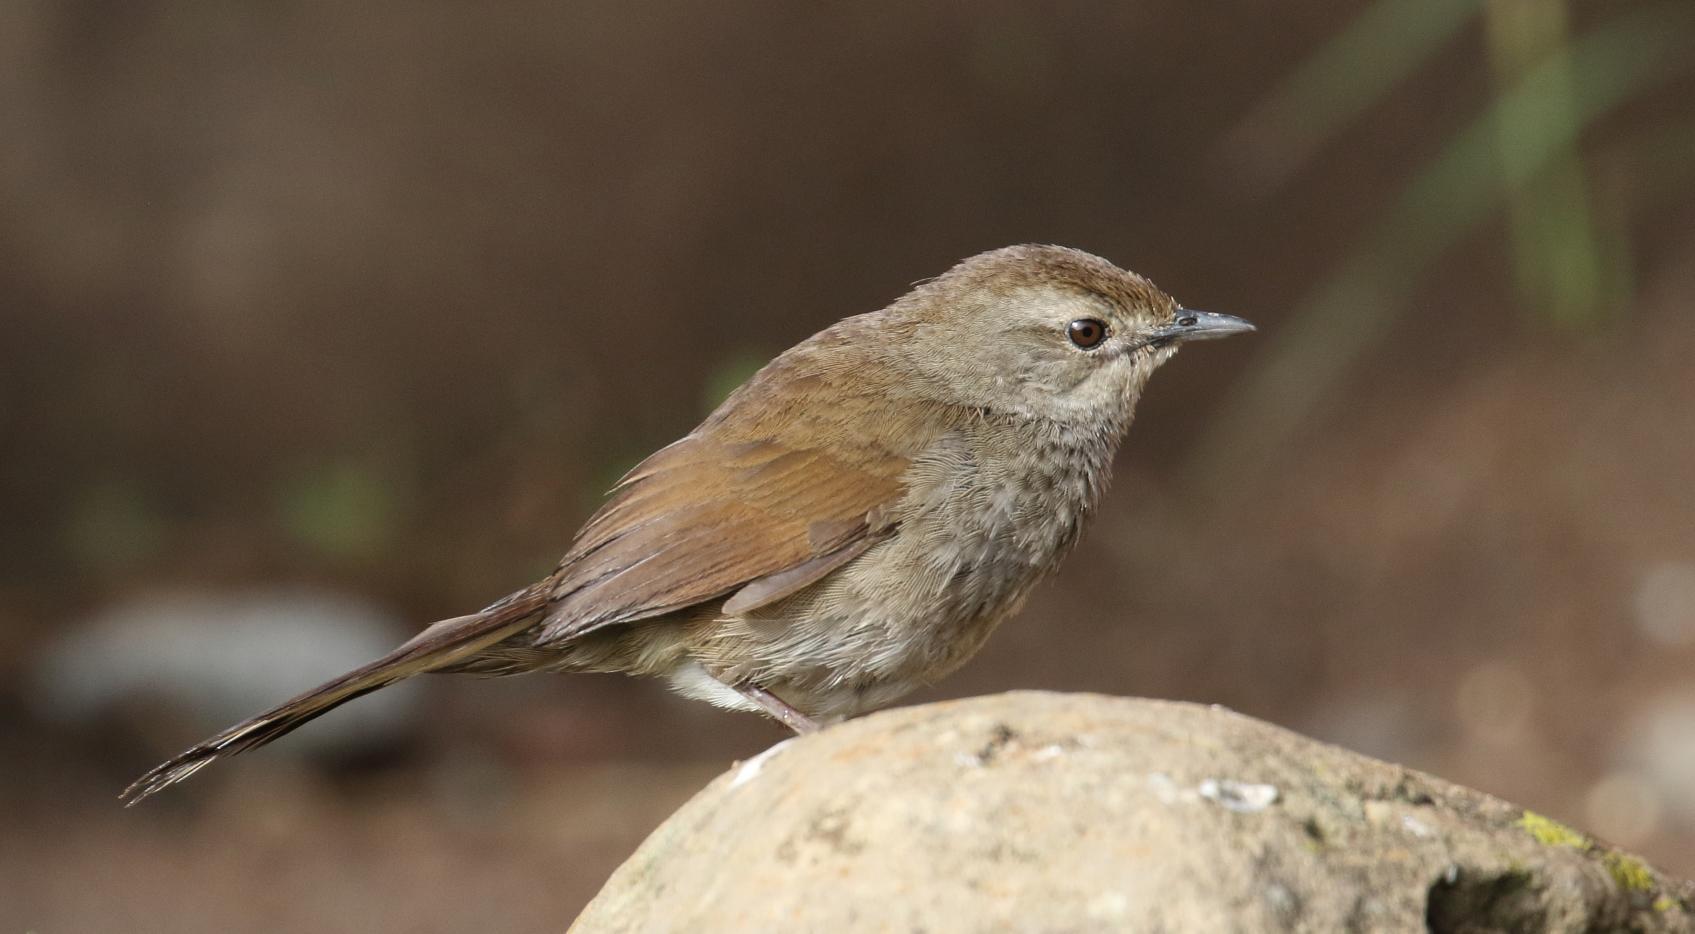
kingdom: Animalia
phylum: Chordata
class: Aves
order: Passeriformes
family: Locustellidae
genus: Bradypterus
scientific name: Bradypterus barratti
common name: Barratt's warbler
